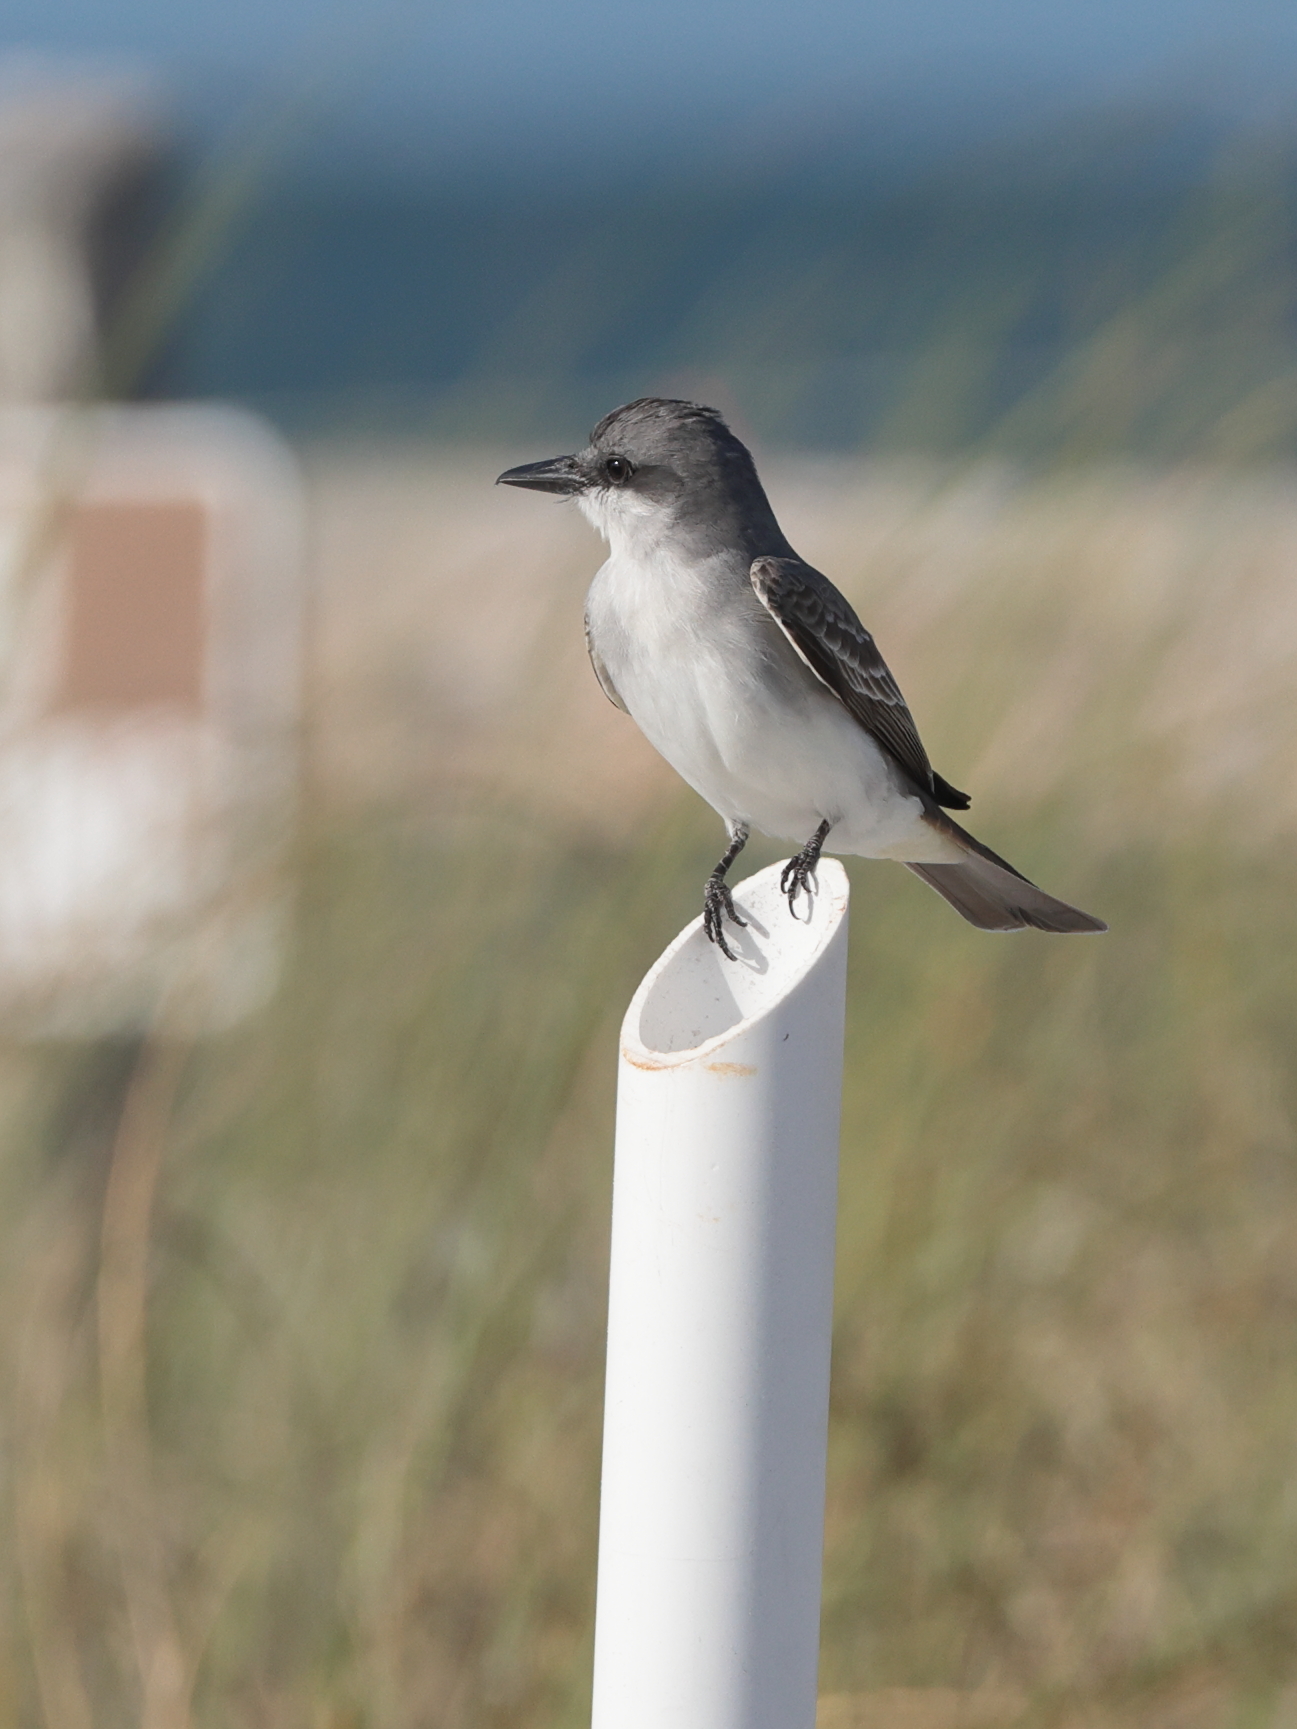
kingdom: Animalia
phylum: Chordata
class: Aves
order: Passeriformes
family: Tyrannidae
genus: Tyrannus
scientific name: Tyrannus dominicensis
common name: Gray kingbird
